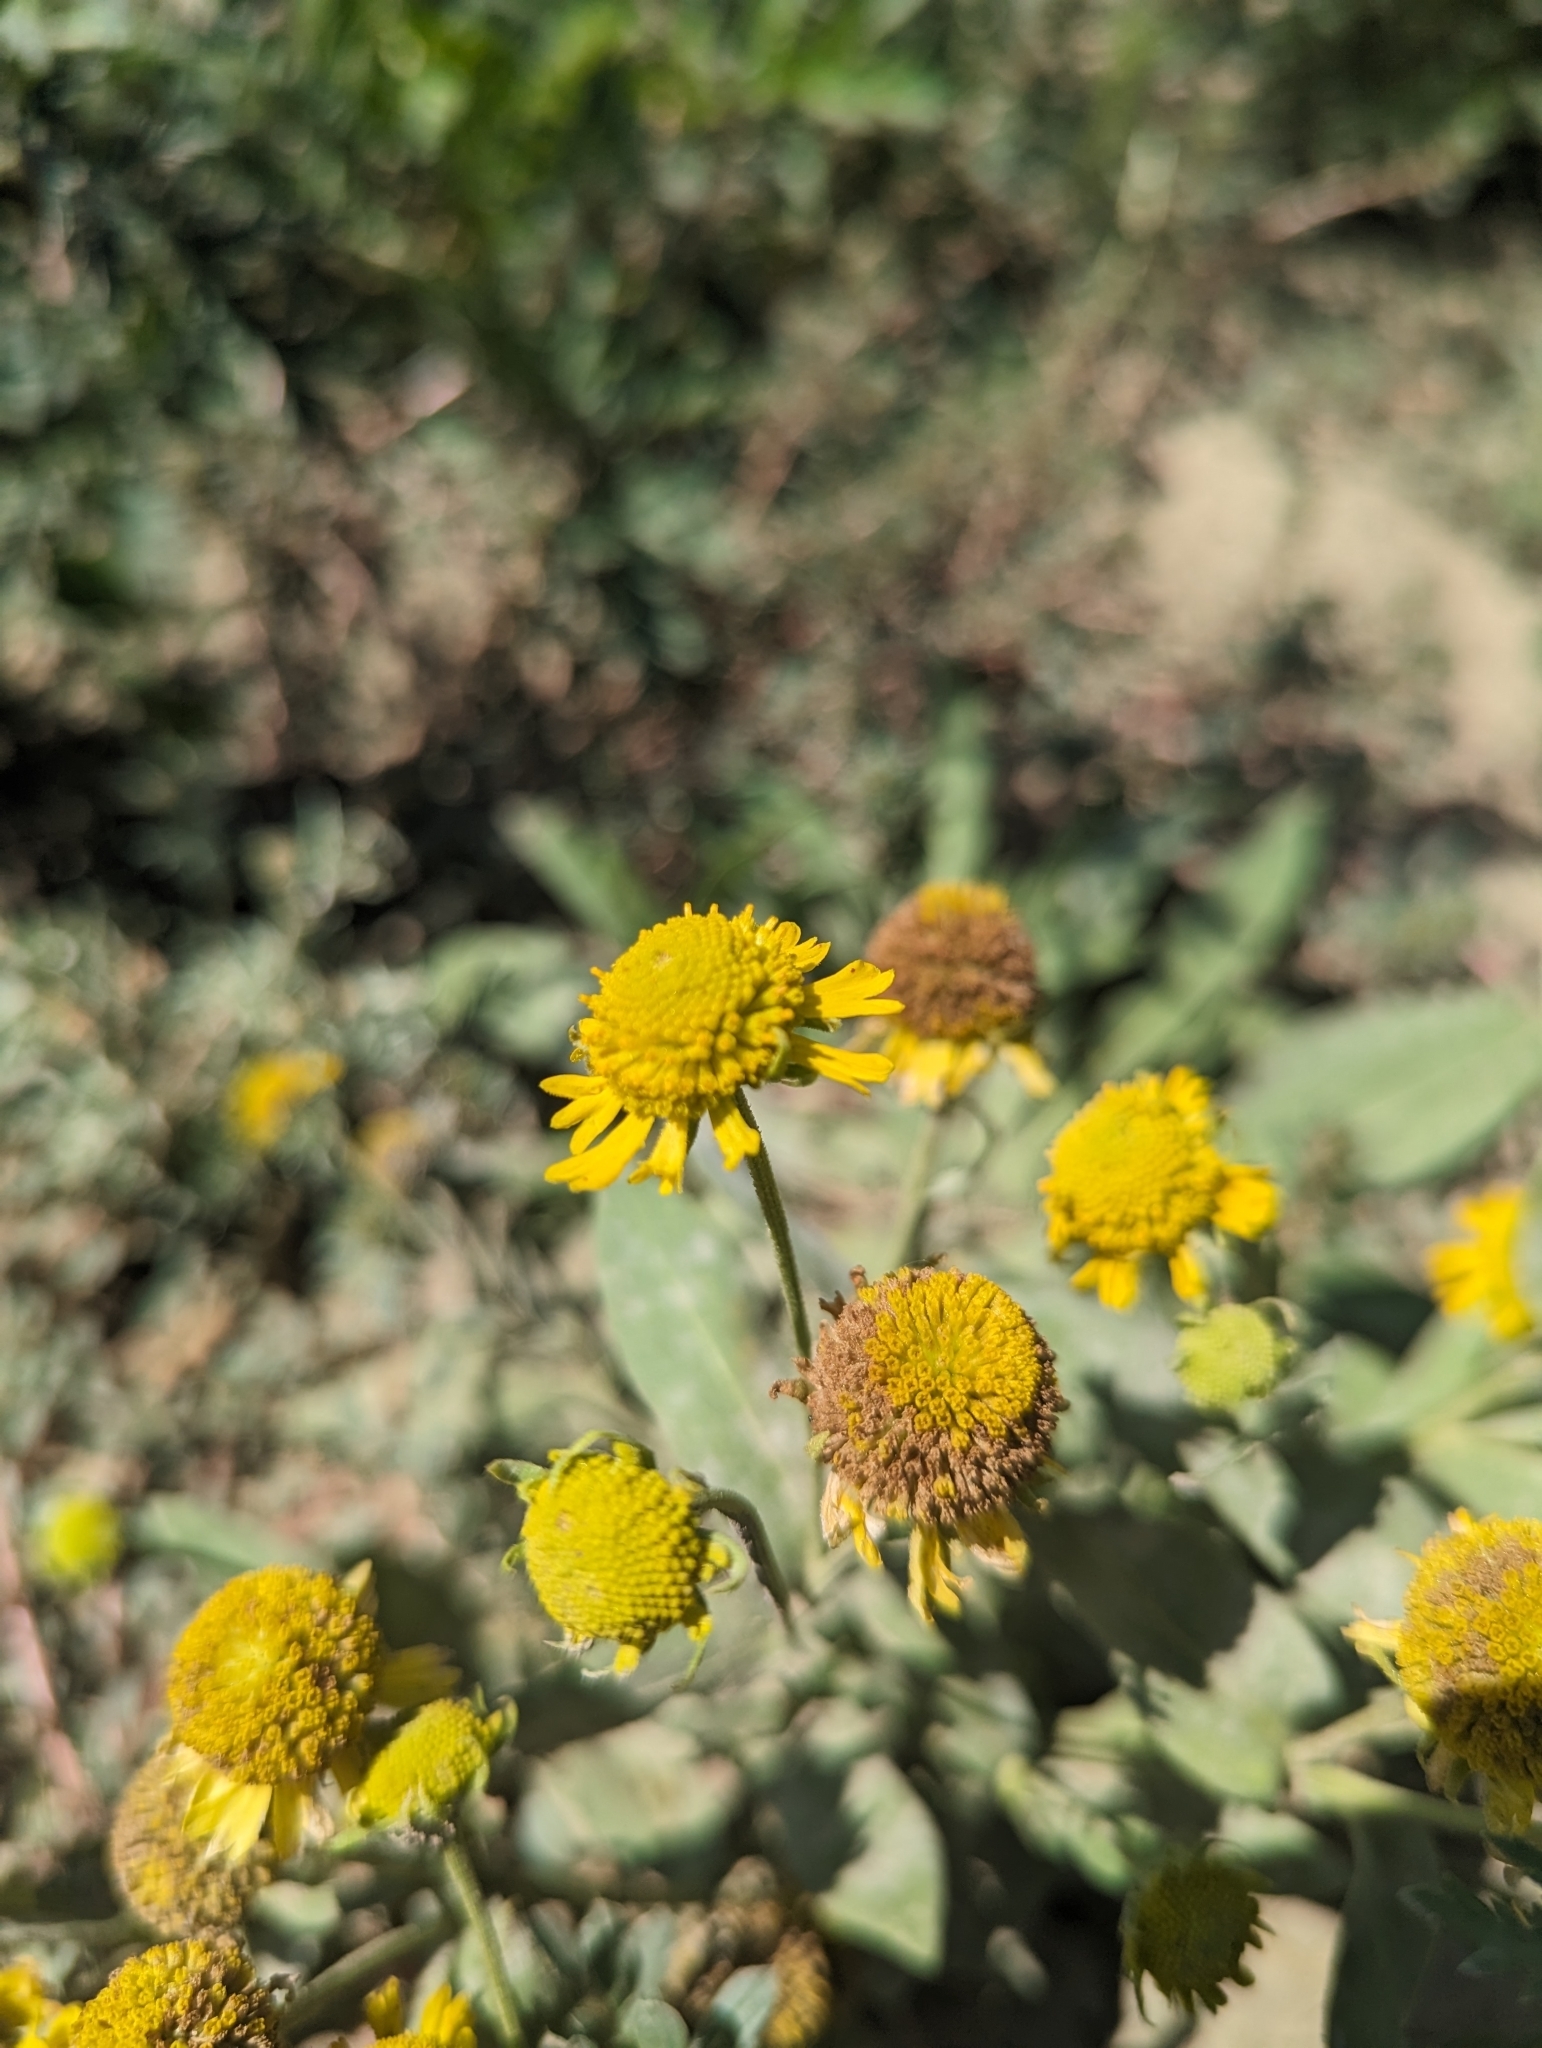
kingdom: Plantae
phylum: Tracheophyta
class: Magnoliopsida
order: Asterales
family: Asteraceae
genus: Helenium
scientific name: Helenium autumnale
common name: Sneezeweed
